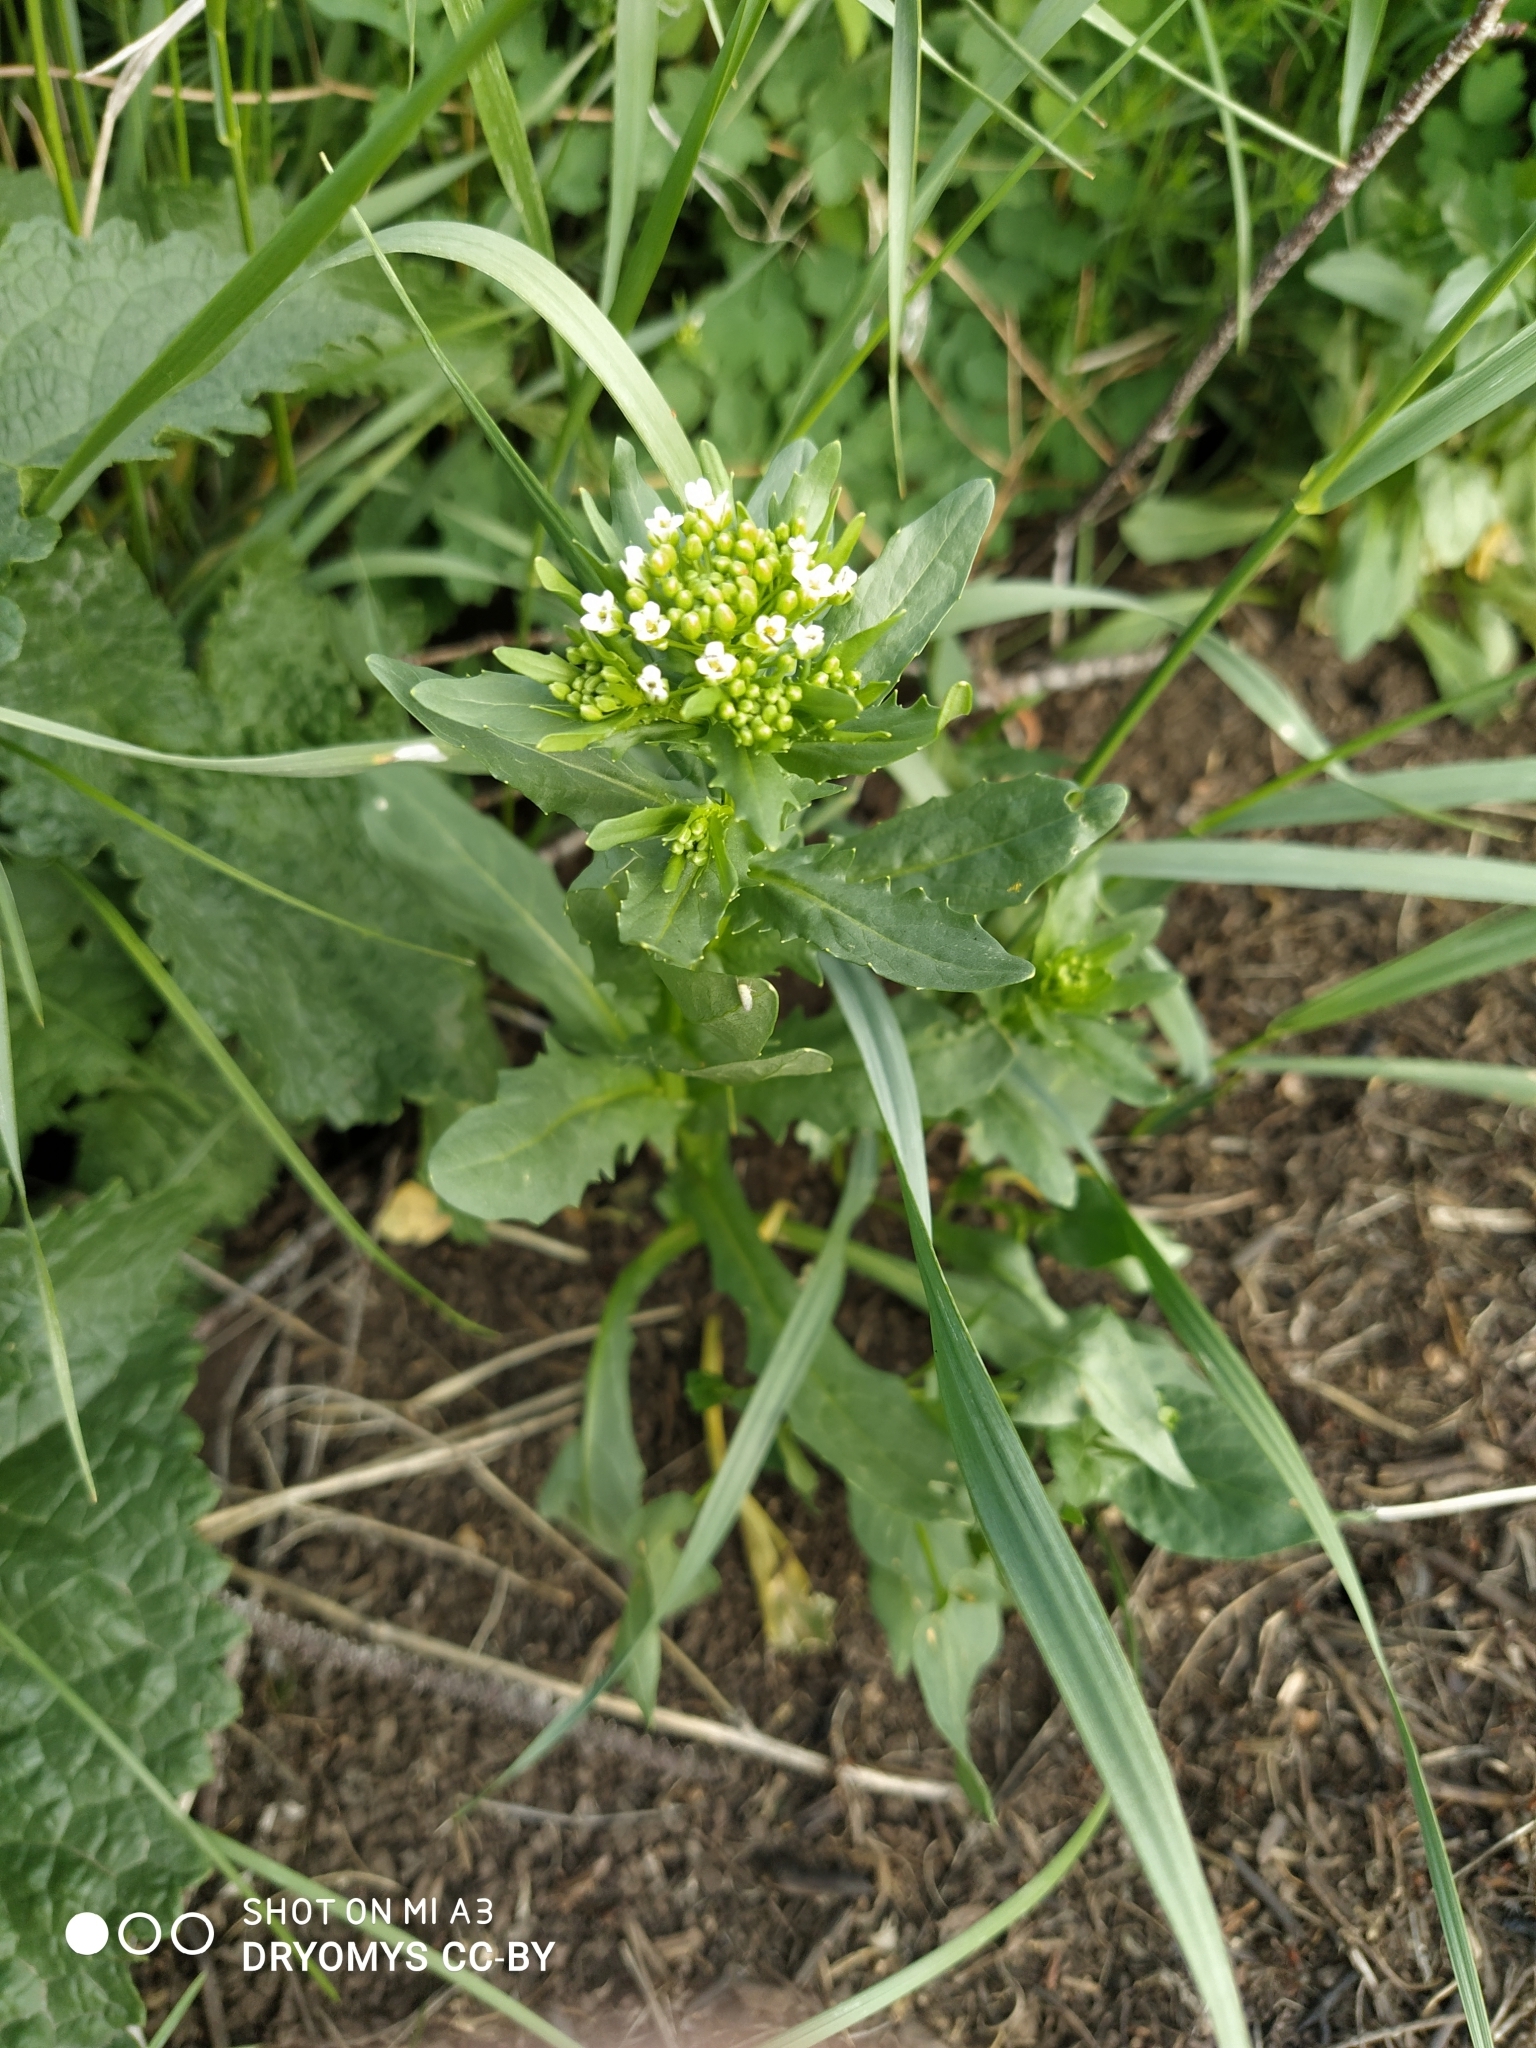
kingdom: Plantae
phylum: Tracheophyta
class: Magnoliopsida
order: Brassicales
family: Brassicaceae
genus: Thlaspi
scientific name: Thlaspi arvense
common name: Field pennycress
